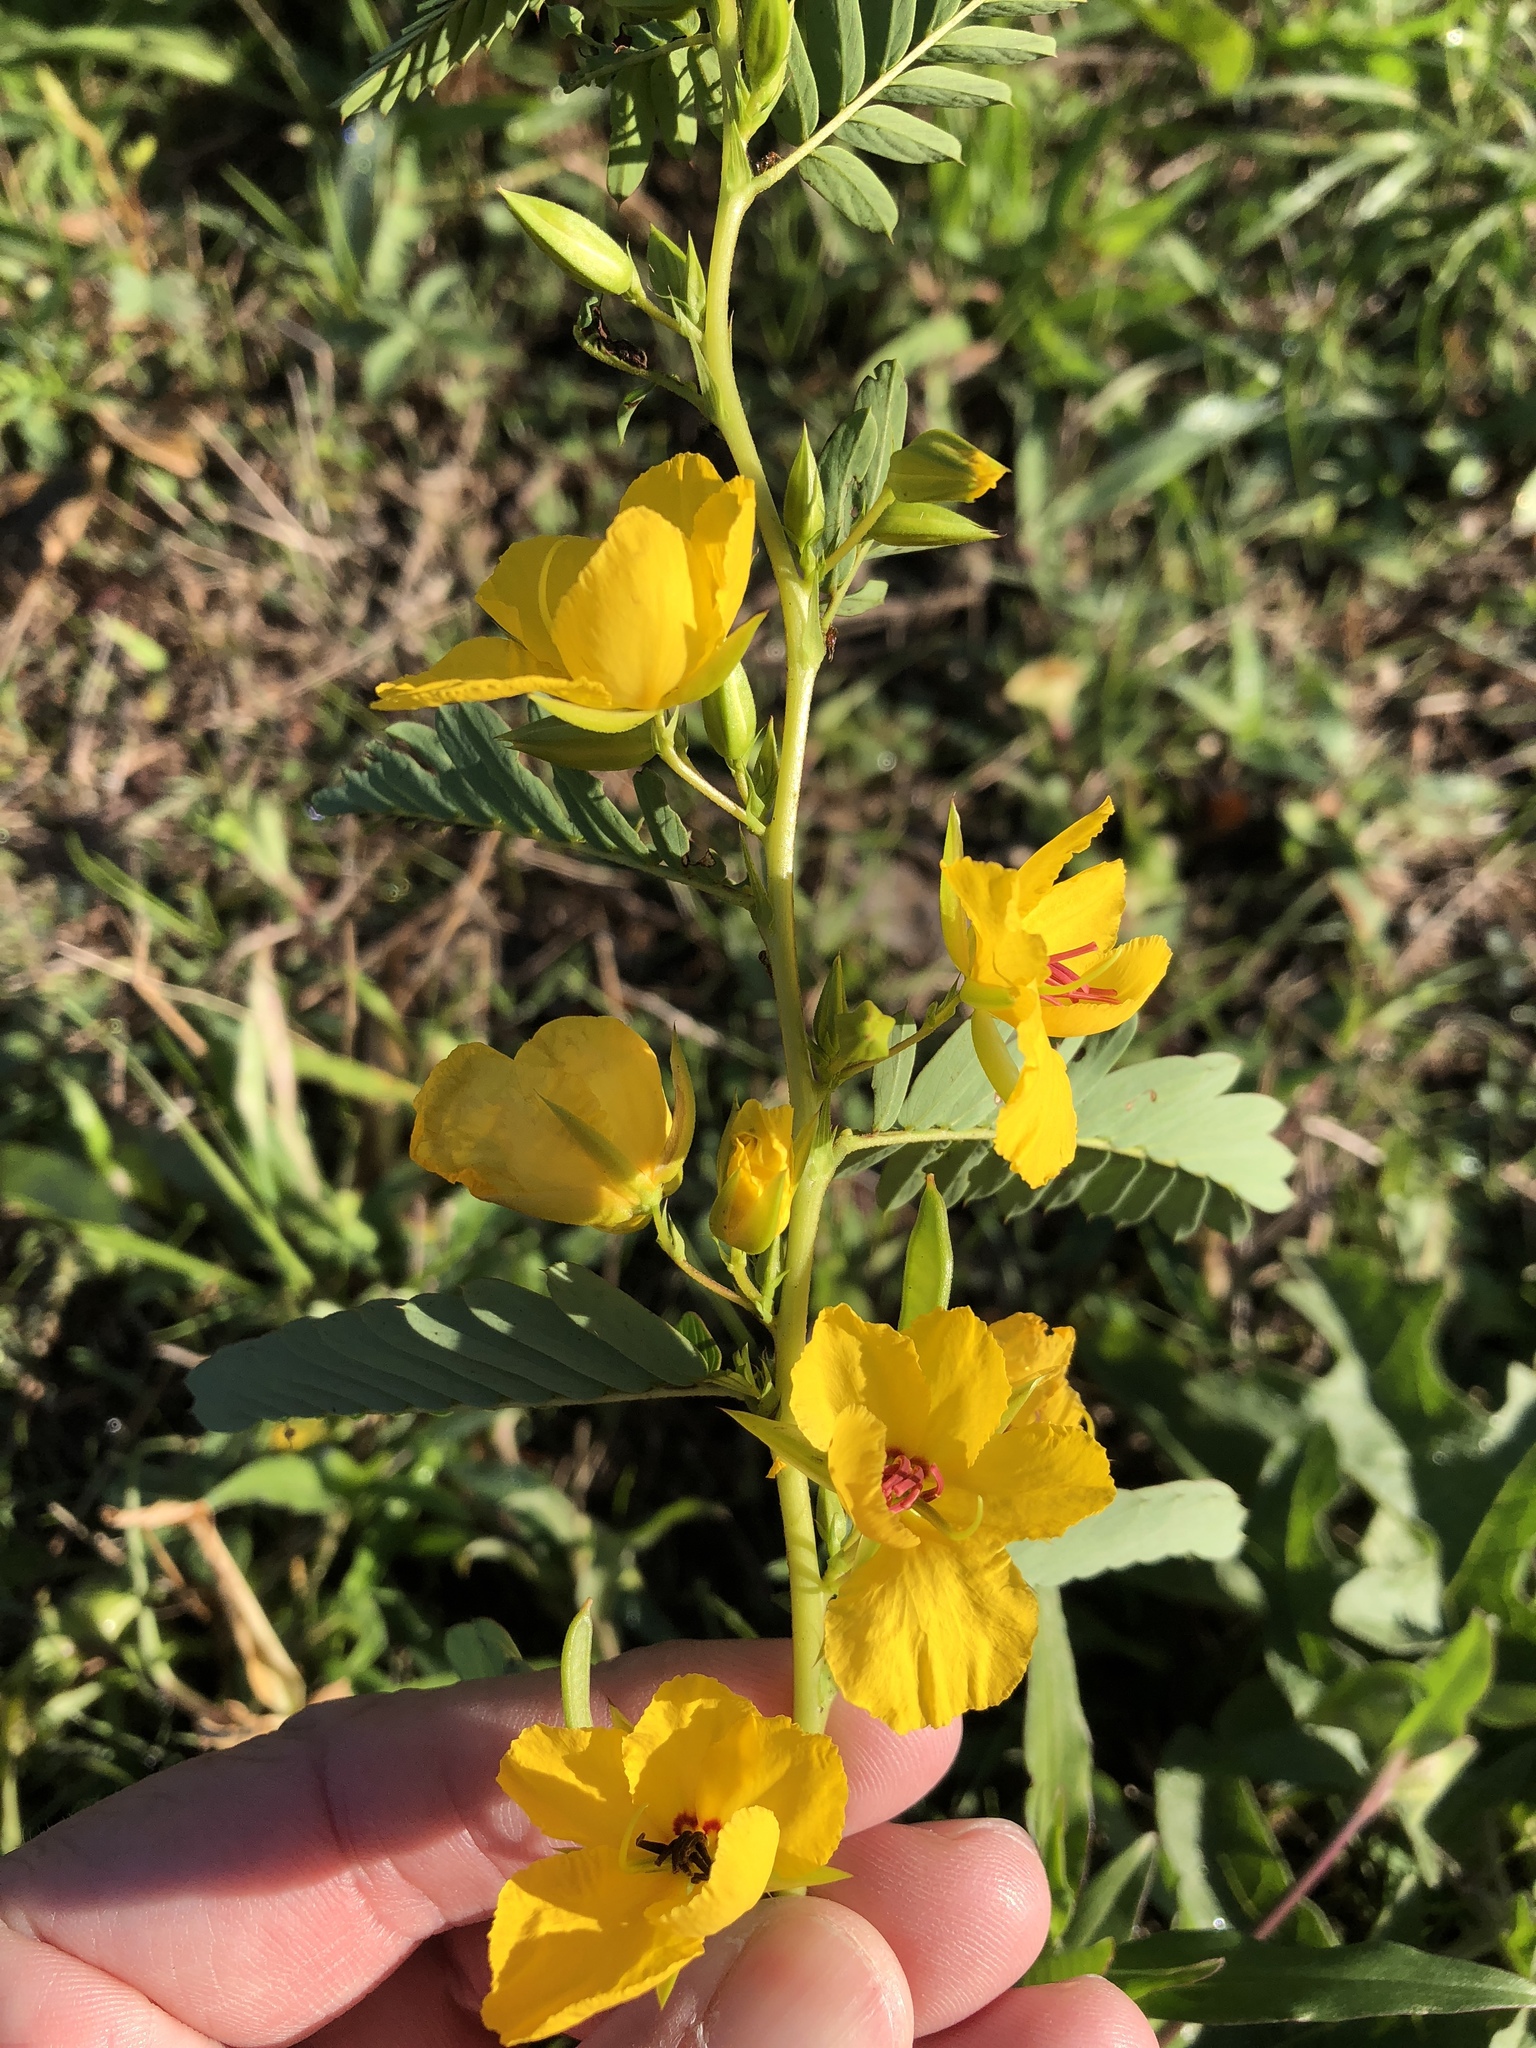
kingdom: Plantae
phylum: Tracheophyta
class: Magnoliopsida
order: Fabales
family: Fabaceae
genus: Chamaecrista
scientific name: Chamaecrista fasciculata
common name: Golden cassia
